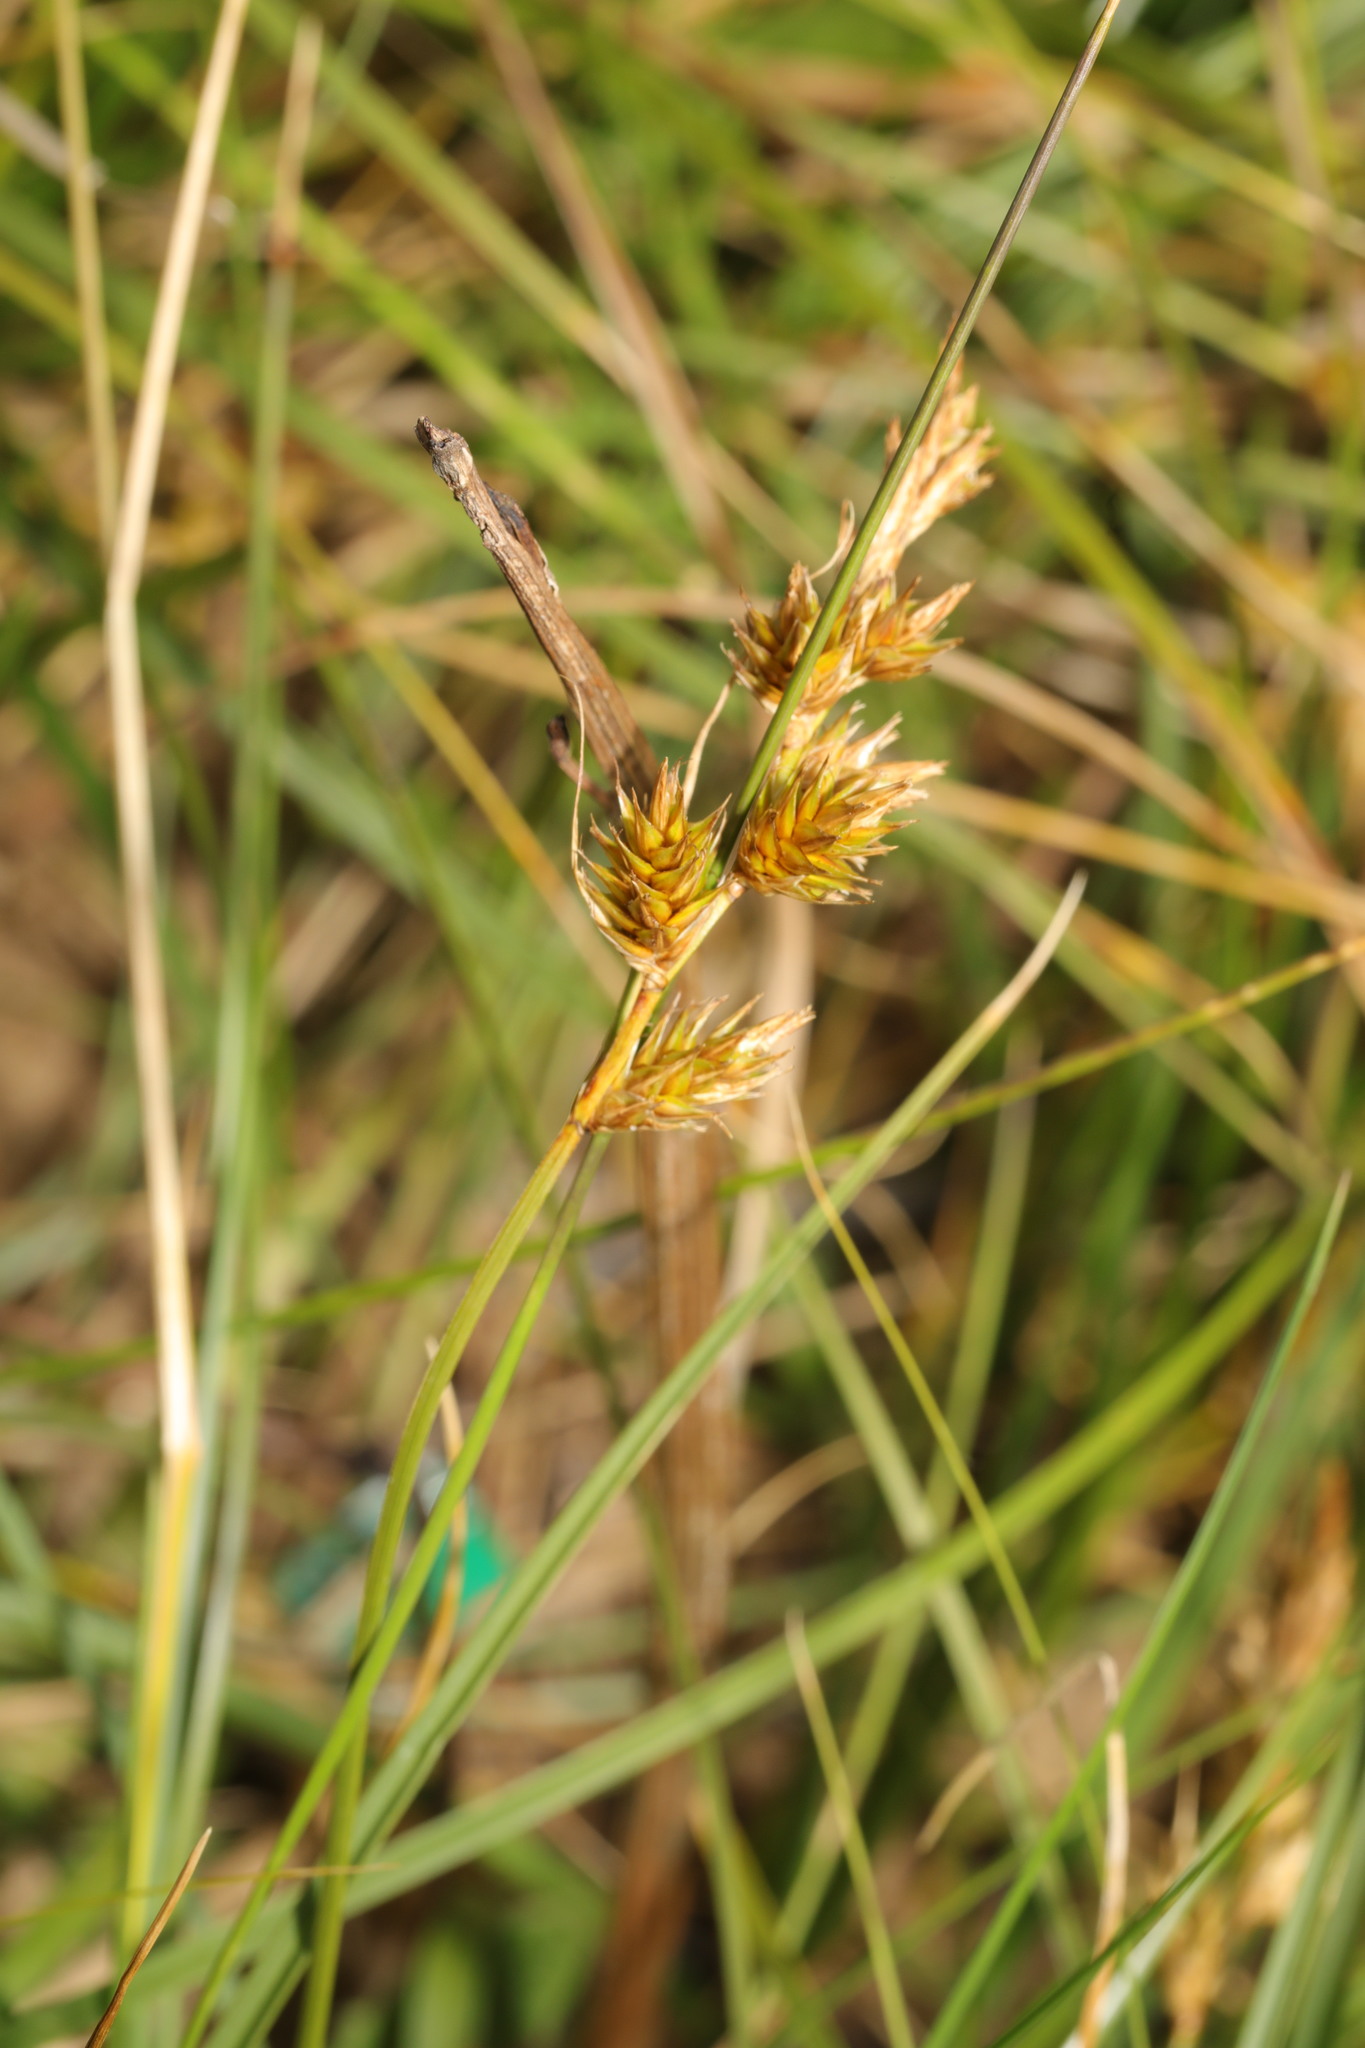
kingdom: Plantae
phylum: Tracheophyta
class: Liliopsida
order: Poales
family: Cyperaceae
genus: Carex
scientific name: Carex arenaria
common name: Sand sedge
